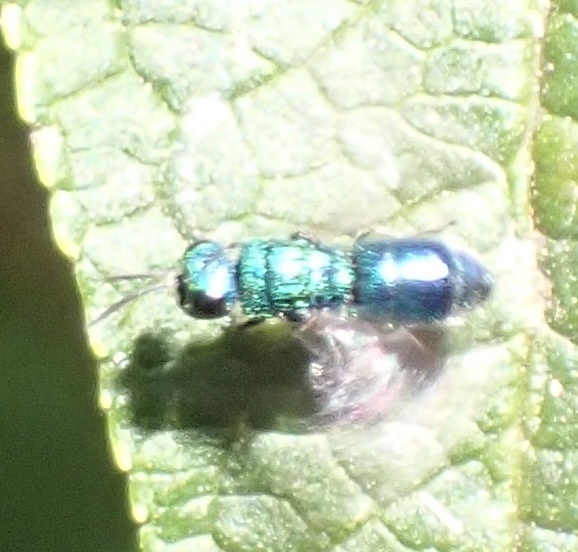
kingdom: Animalia
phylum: Arthropoda
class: Insecta
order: Hymenoptera
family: Pompilidae
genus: Pepsis
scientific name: Pepsis cyanea
